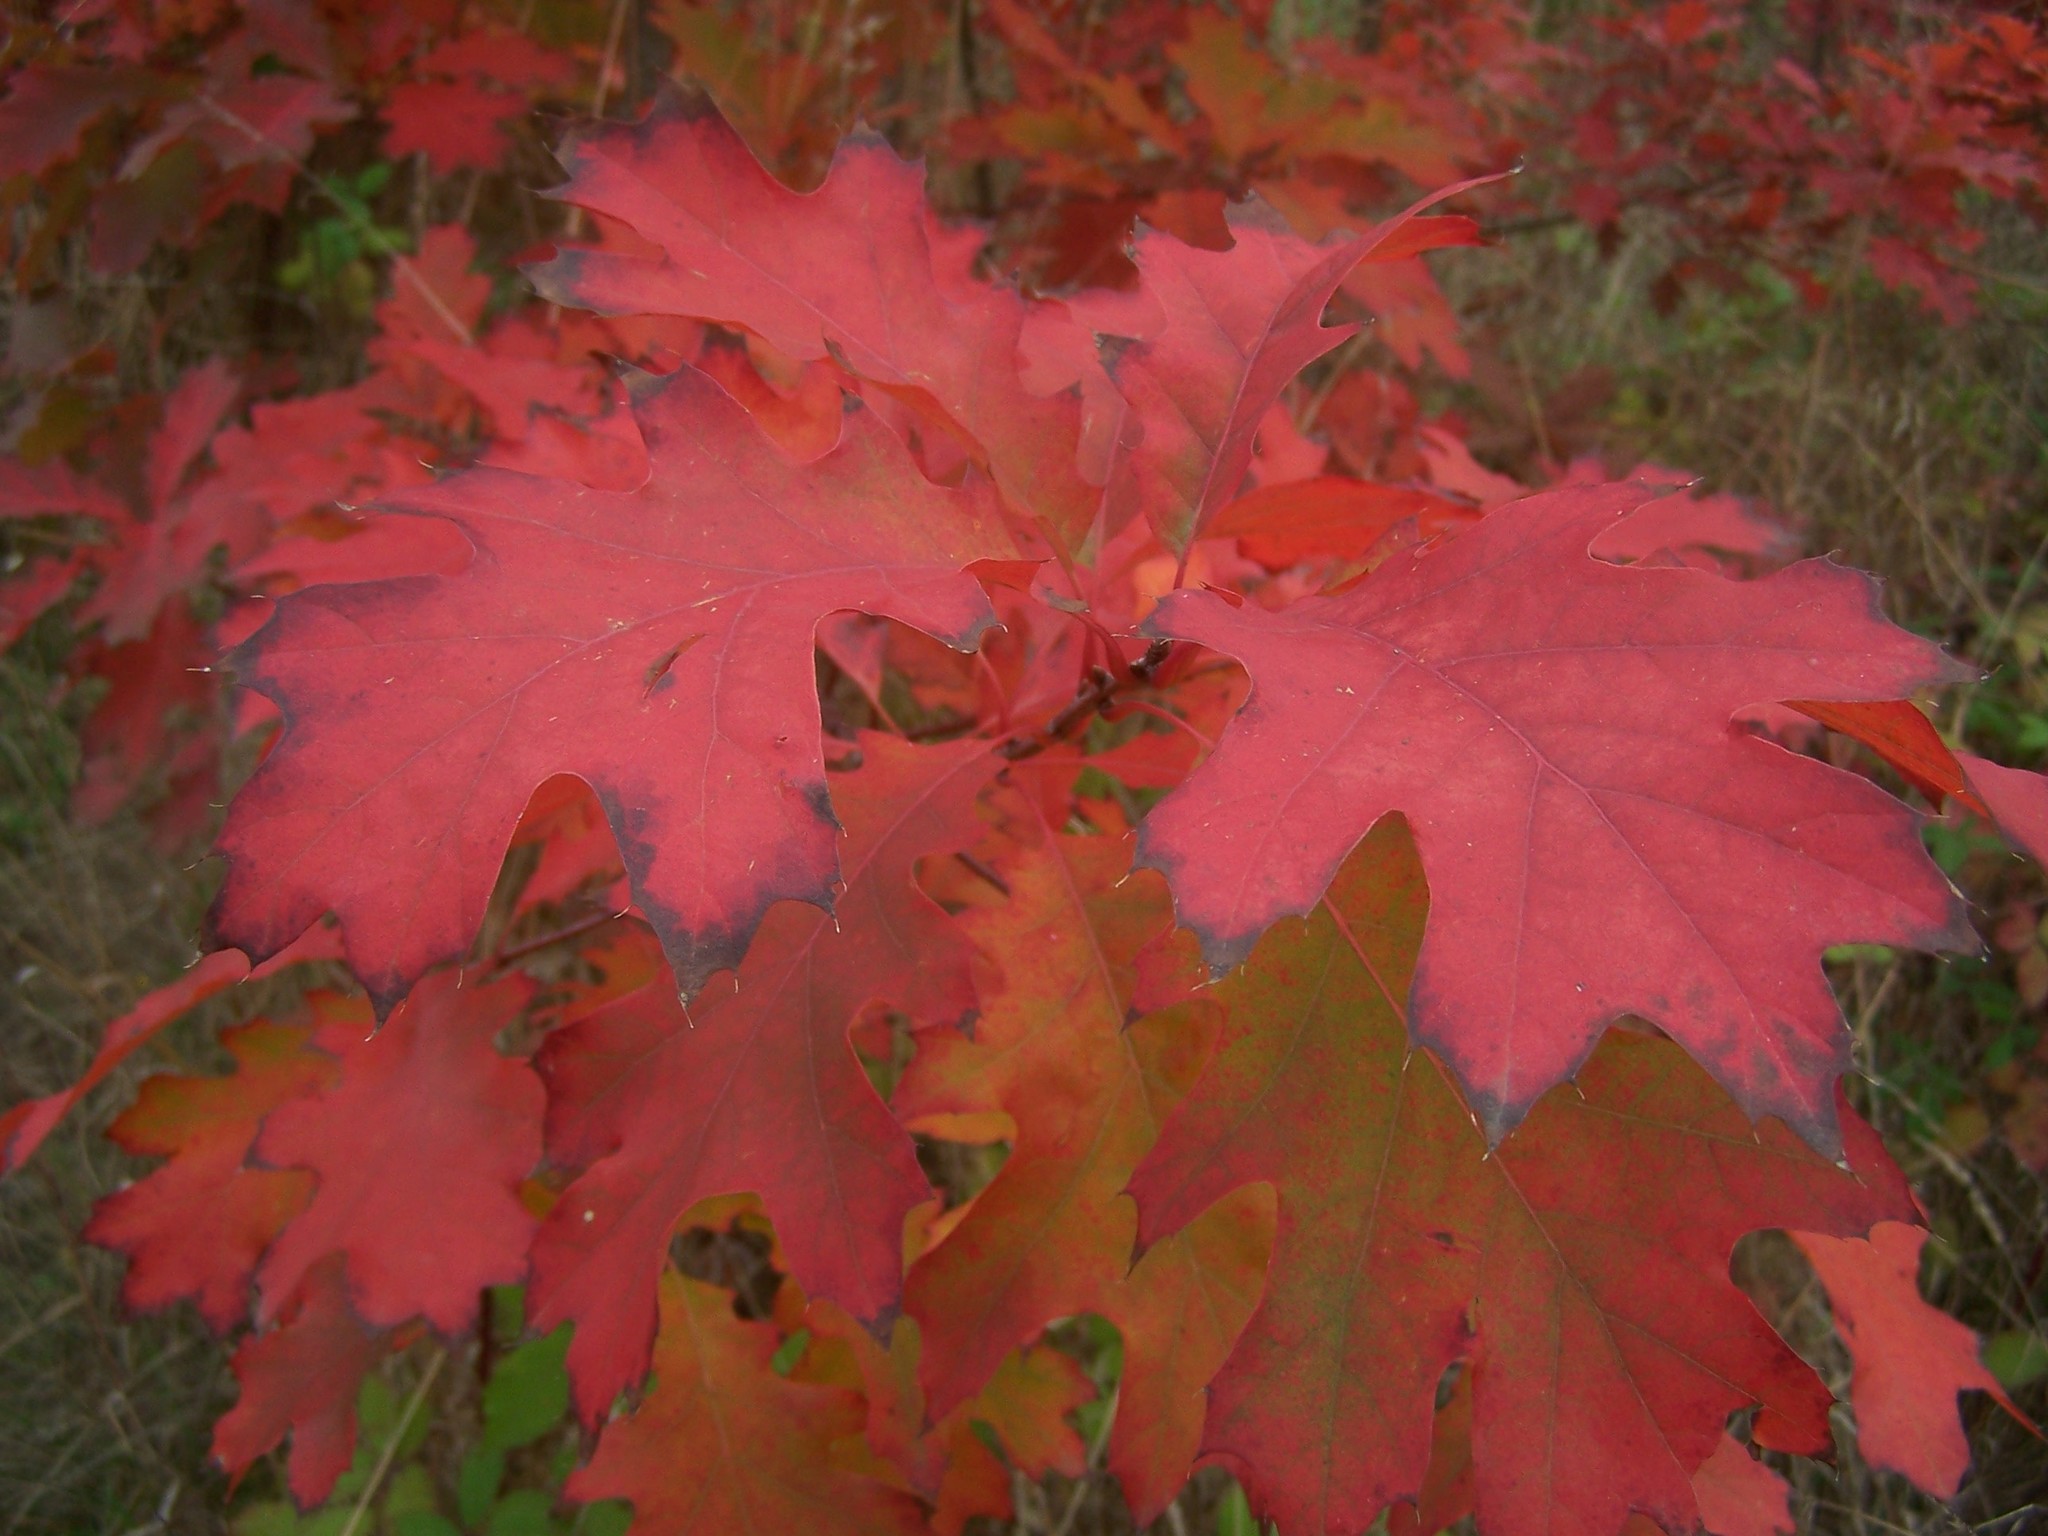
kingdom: Plantae
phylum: Tracheophyta
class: Magnoliopsida
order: Fagales
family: Fagaceae
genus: Quercus
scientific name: Quercus rubra
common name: Red oak
